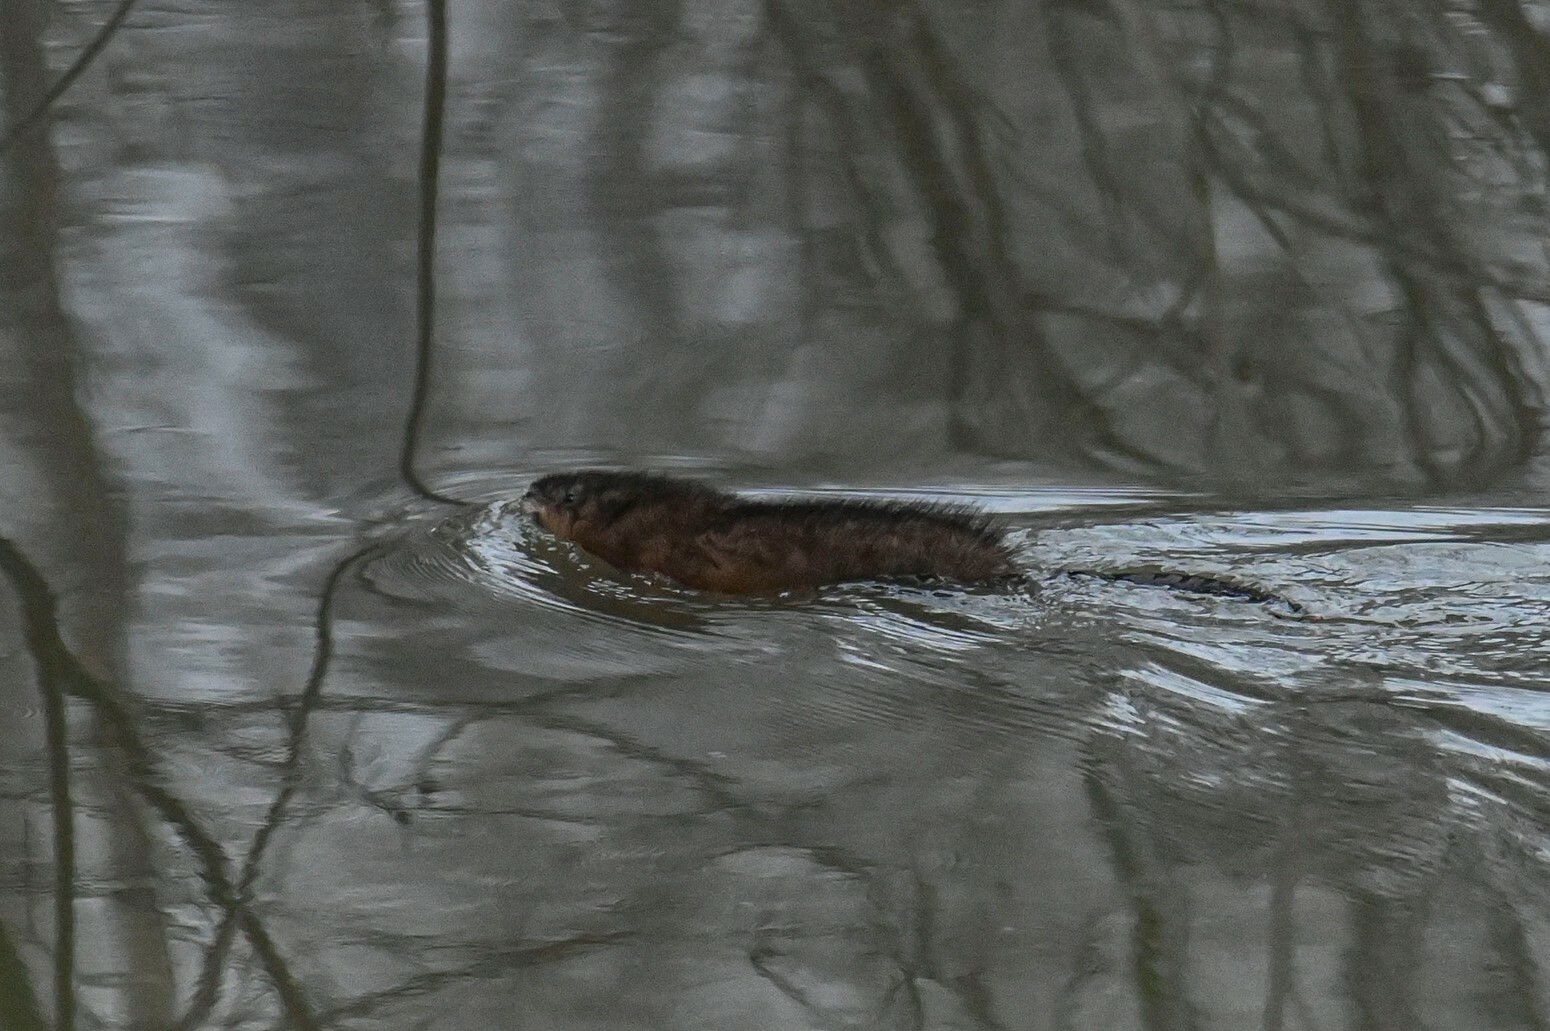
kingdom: Animalia
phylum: Chordata
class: Mammalia
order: Rodentia
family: Cricetidae
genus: Ondatra
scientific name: Ondatra zibethicus
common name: Muskrat
